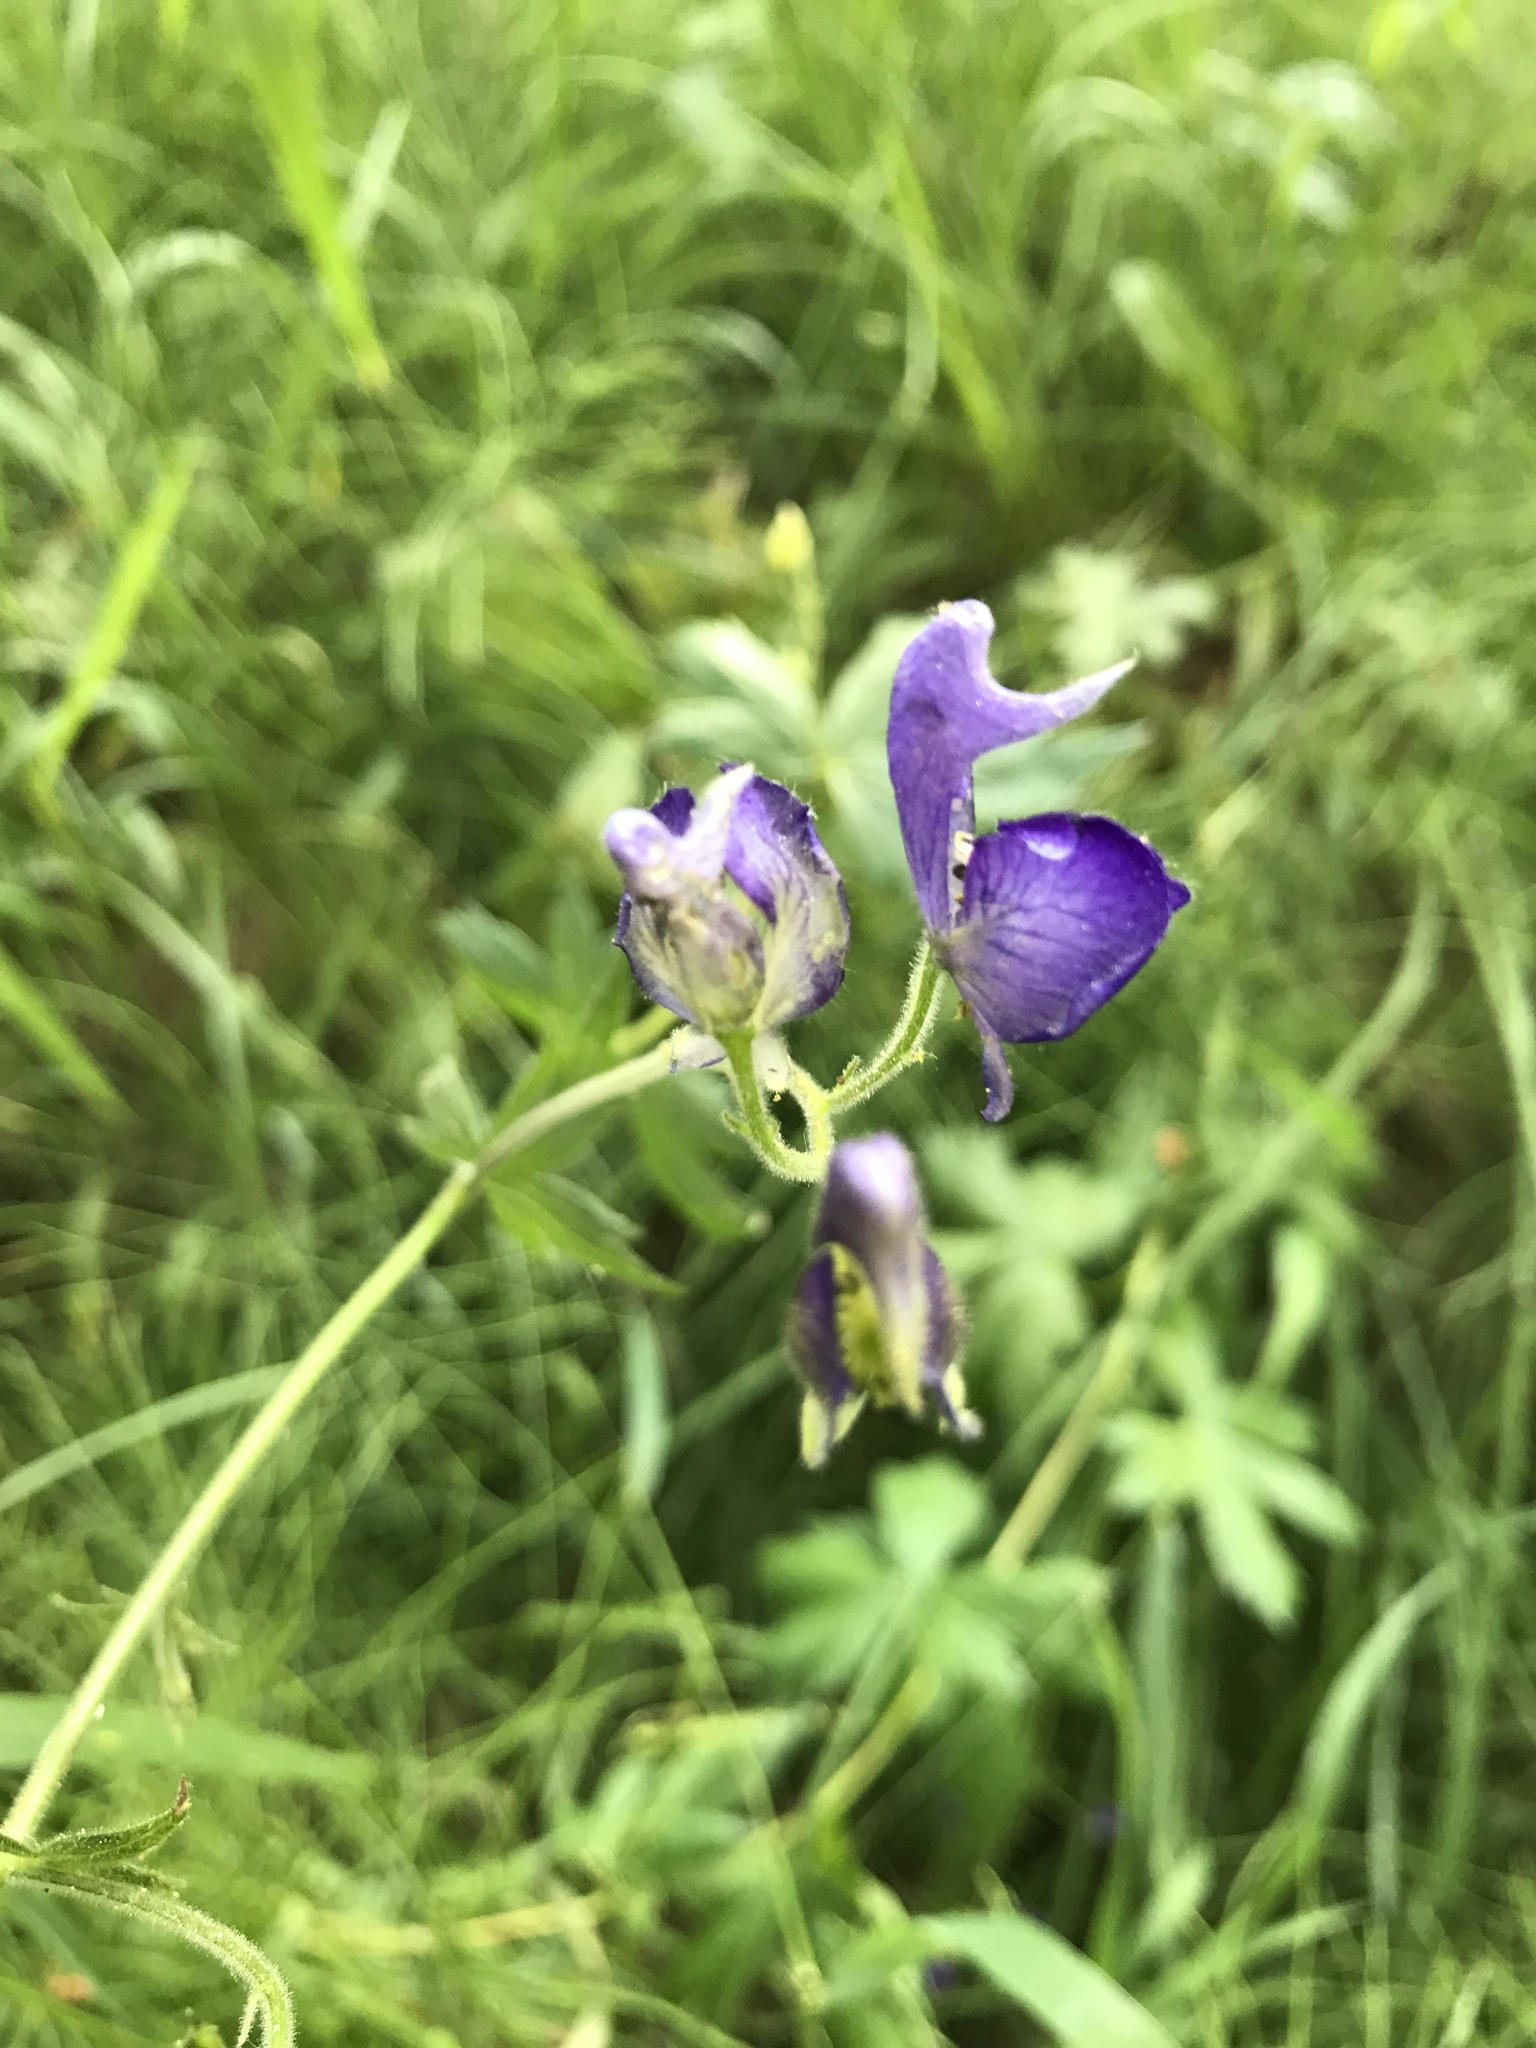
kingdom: Plantae
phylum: Tracheophyta
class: Magnoliopsida
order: Ranunculales
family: Ranunculaceae
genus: Aconitum
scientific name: Aconitum columbianum
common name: Columbia aconite
